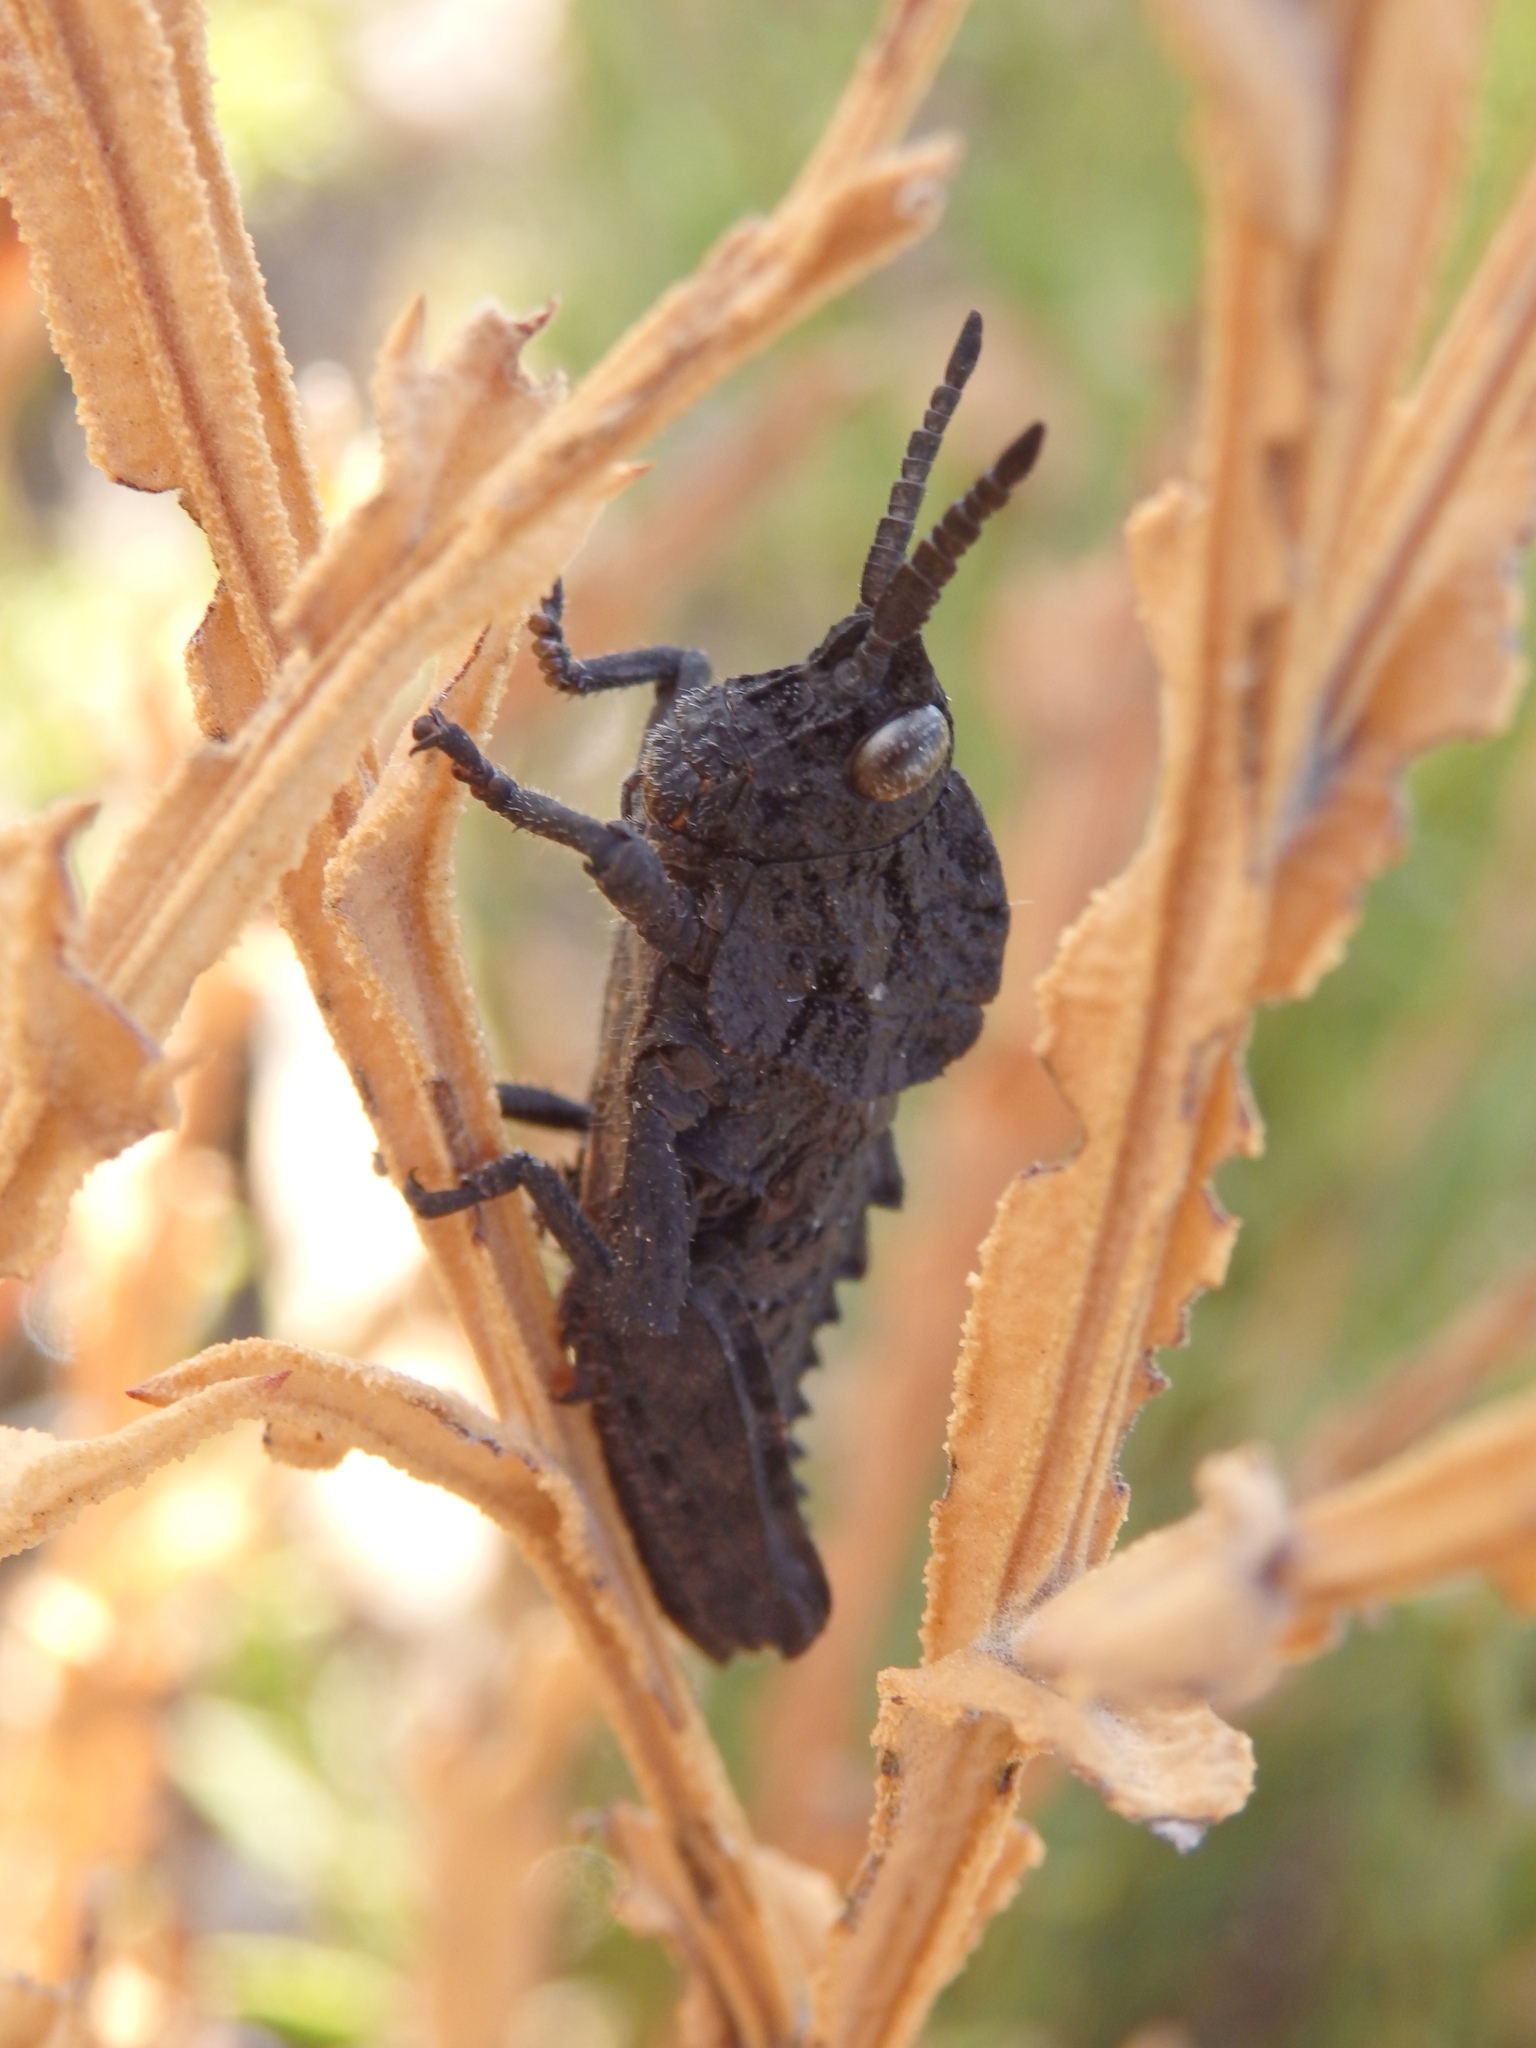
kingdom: Animalia
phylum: Arthropoda
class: Insecta
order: Orthoptera
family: Pamphagidae
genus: Eumigus
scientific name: Eumigus ayresi
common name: Ayres' stone grasshopper
